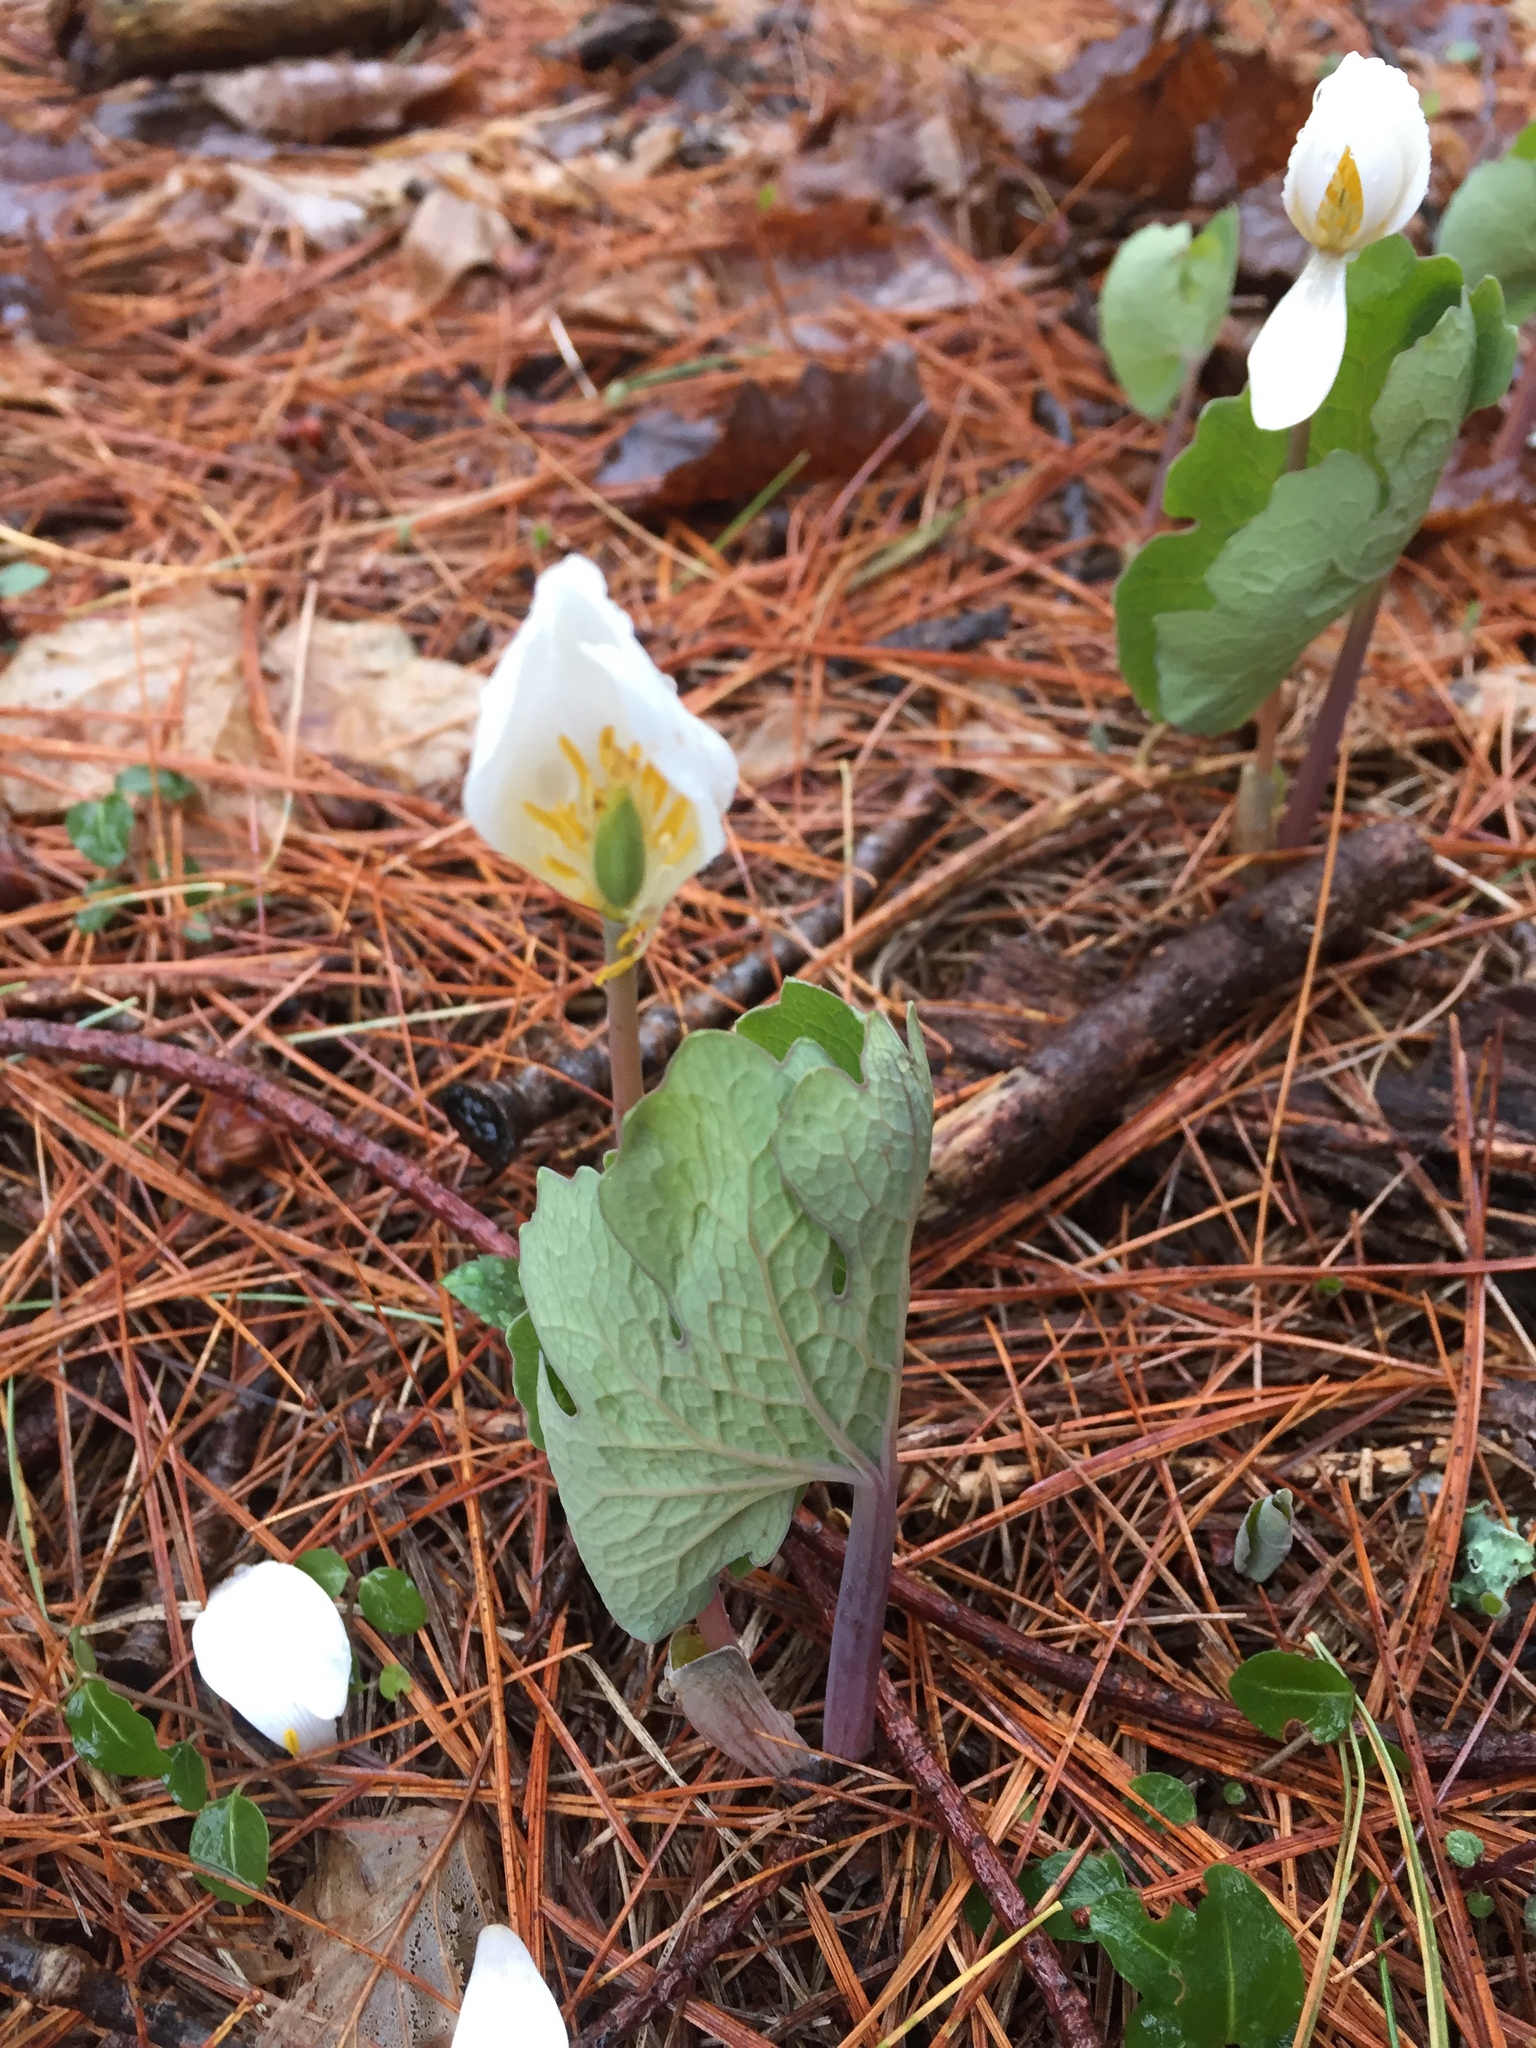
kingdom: Plantae
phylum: Tracheophyta
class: Magnoliopsida
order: Ranunculales
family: Papaveraceae
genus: Sanguinaria
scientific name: Sanguinaria canadensis
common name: Bloodroot
